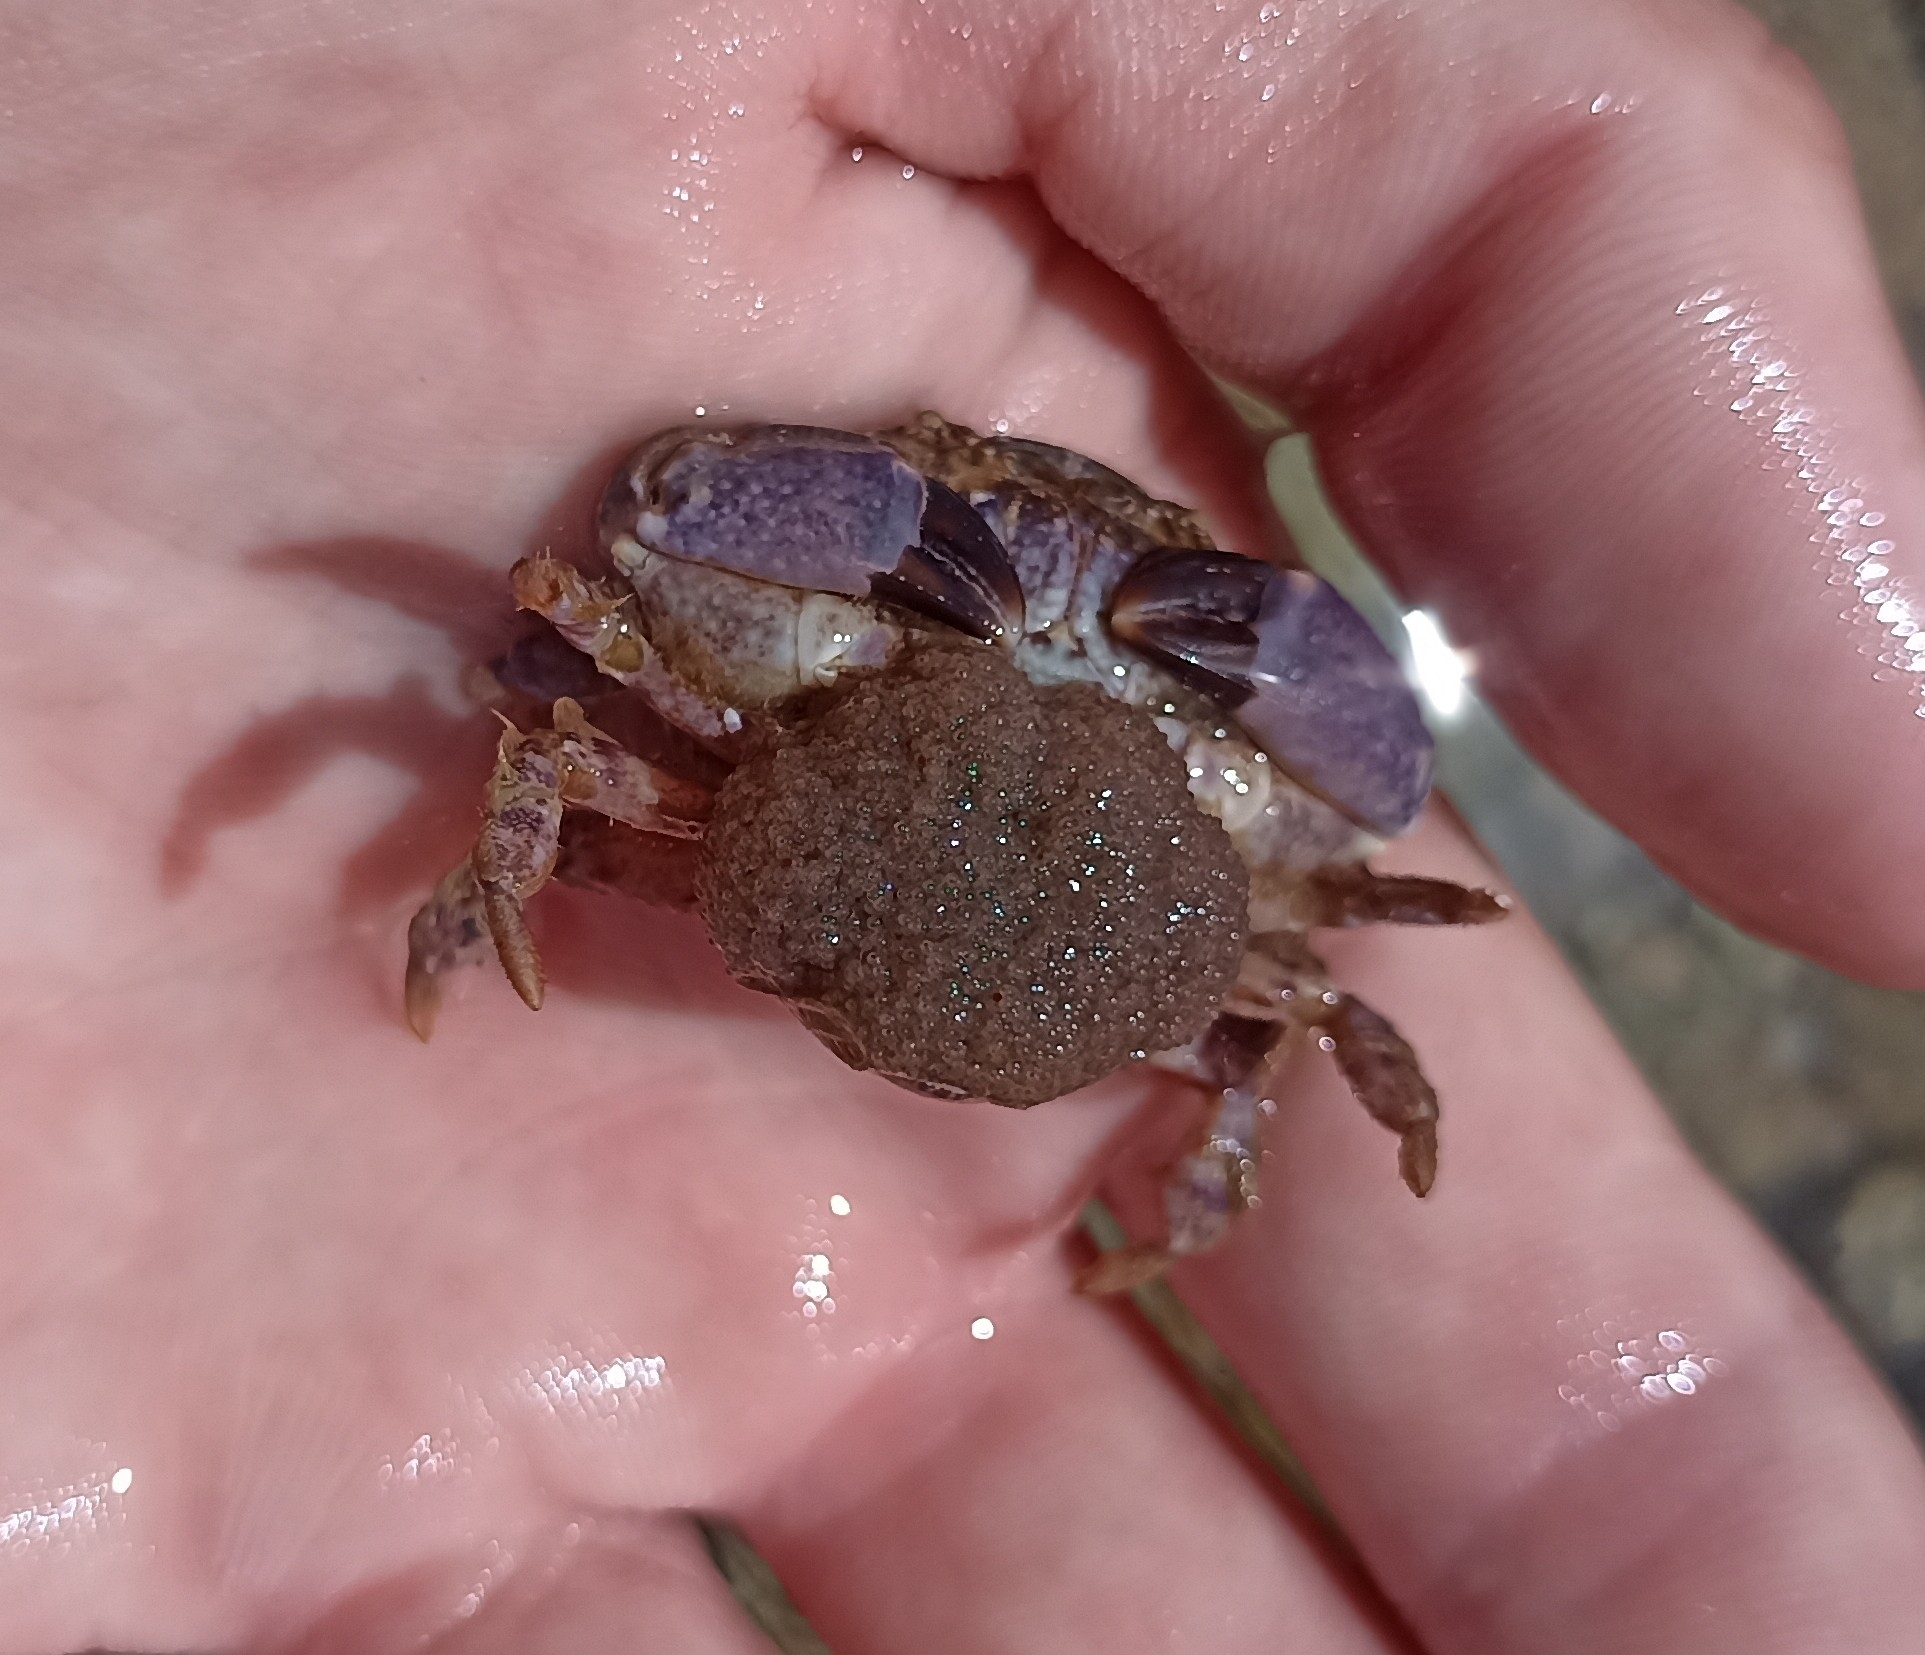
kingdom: Animalia
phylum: Arthropoda
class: Malacostraca
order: Decapoda
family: Xanthidae
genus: Xantho
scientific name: Xantho hydrophilus
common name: Montagu's crab
